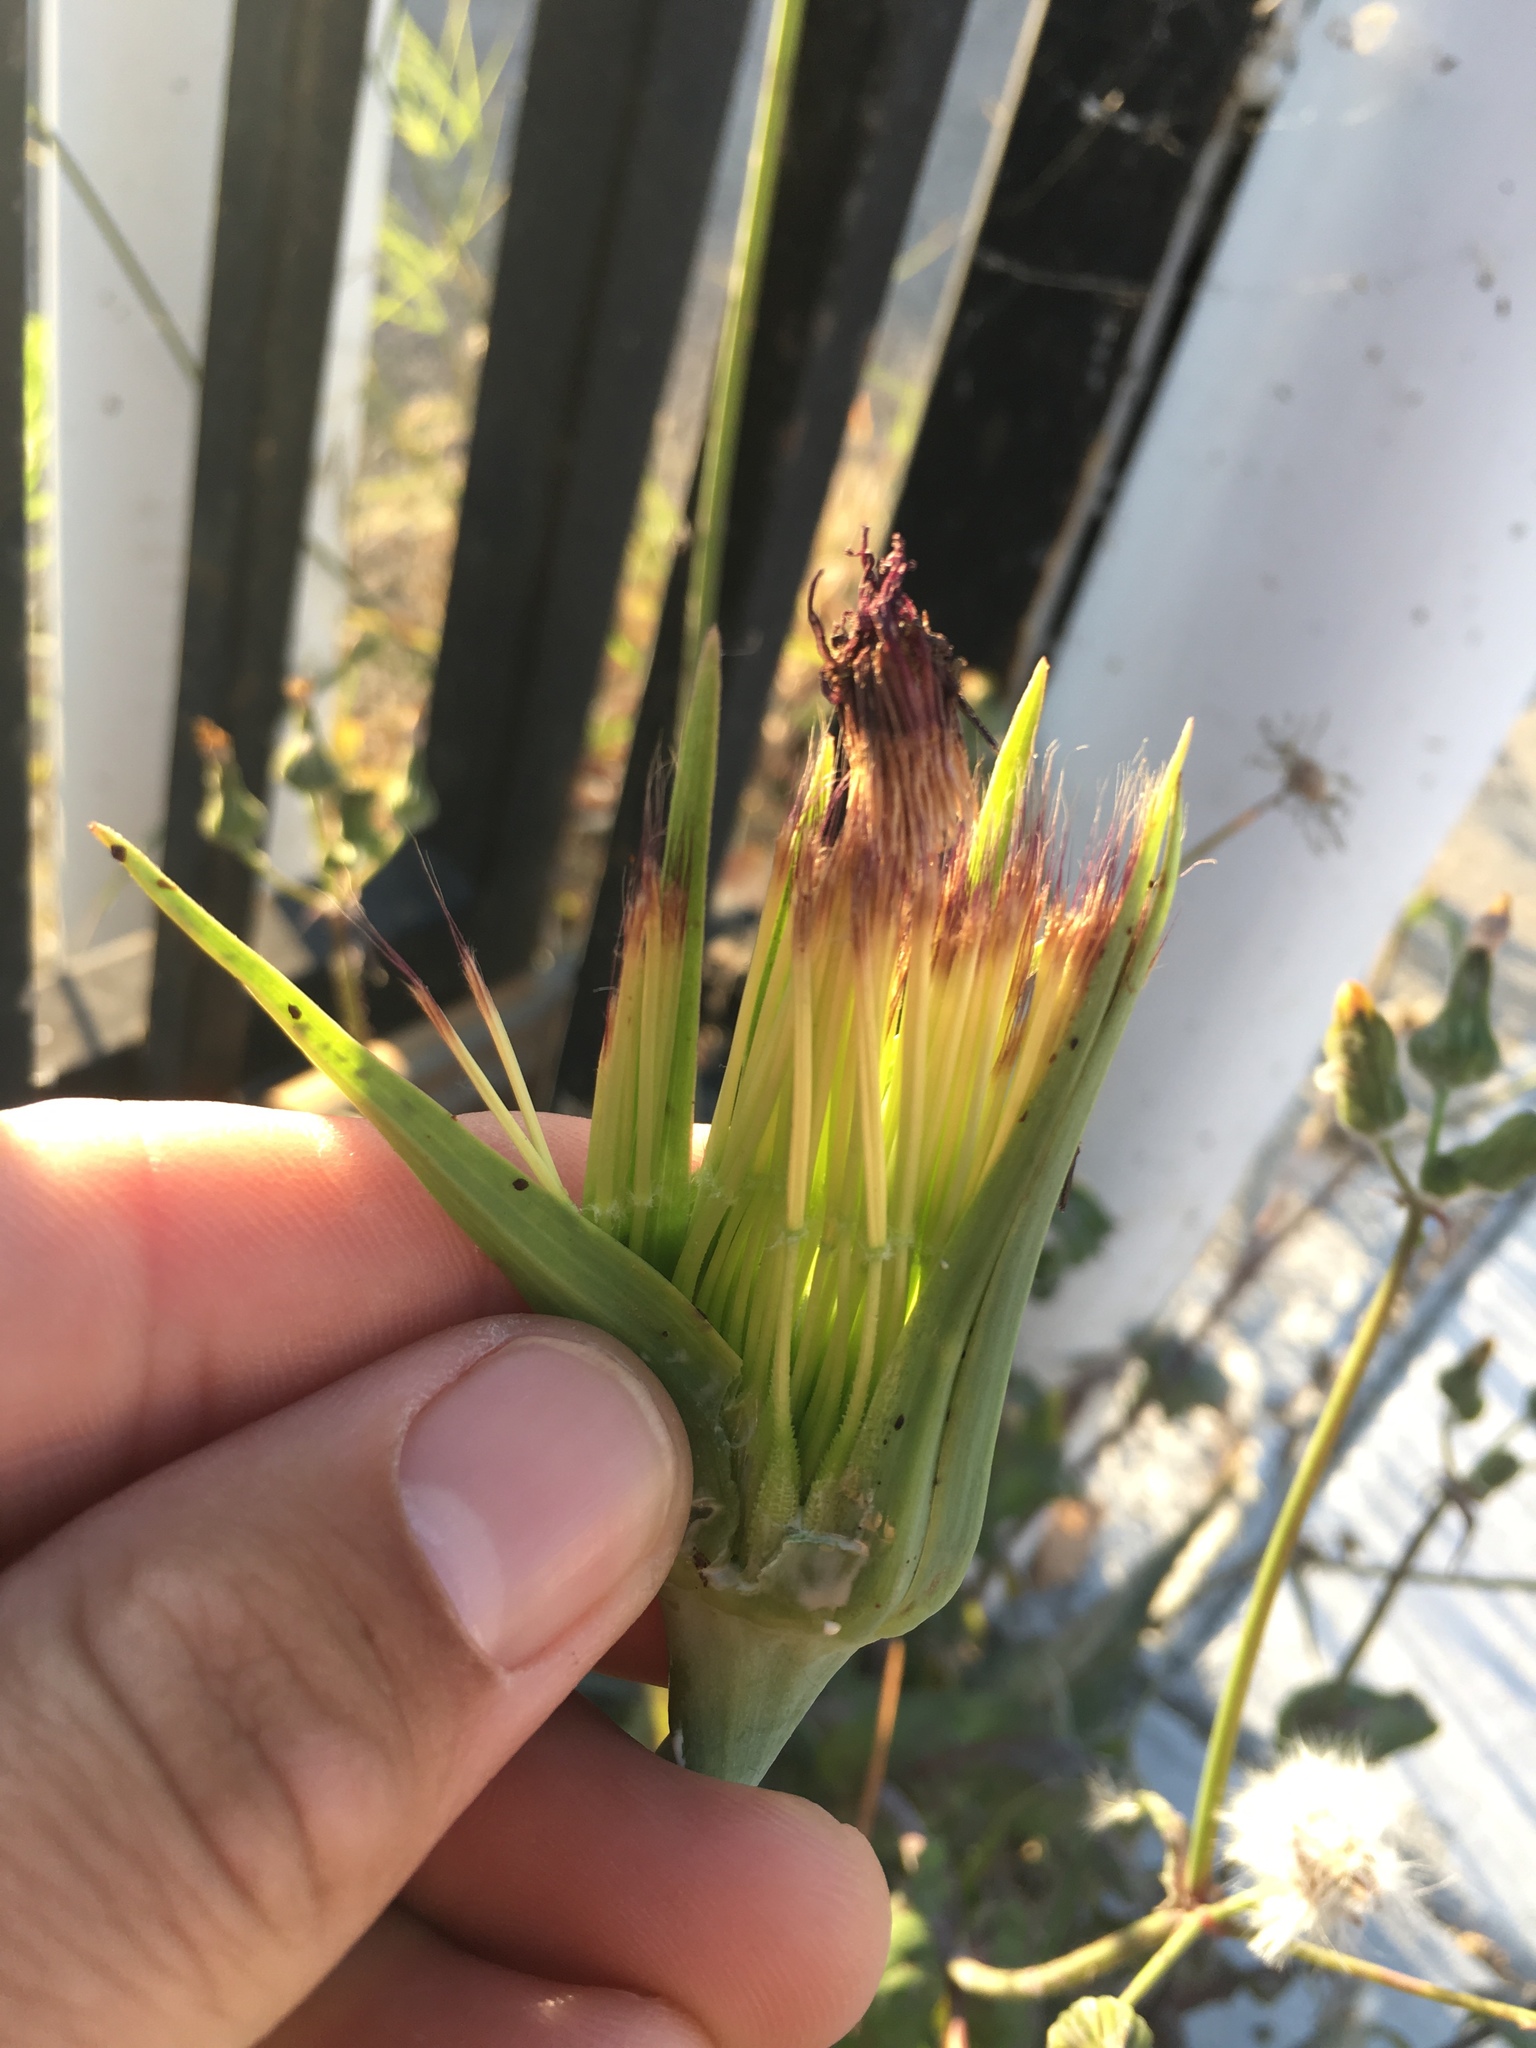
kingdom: Plantae
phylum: Tracheophyta
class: Magnoliopsida
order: Asterales
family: Asteraceae
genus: Tragopogon
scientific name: Tragopogon porrifolius
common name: Salsify
